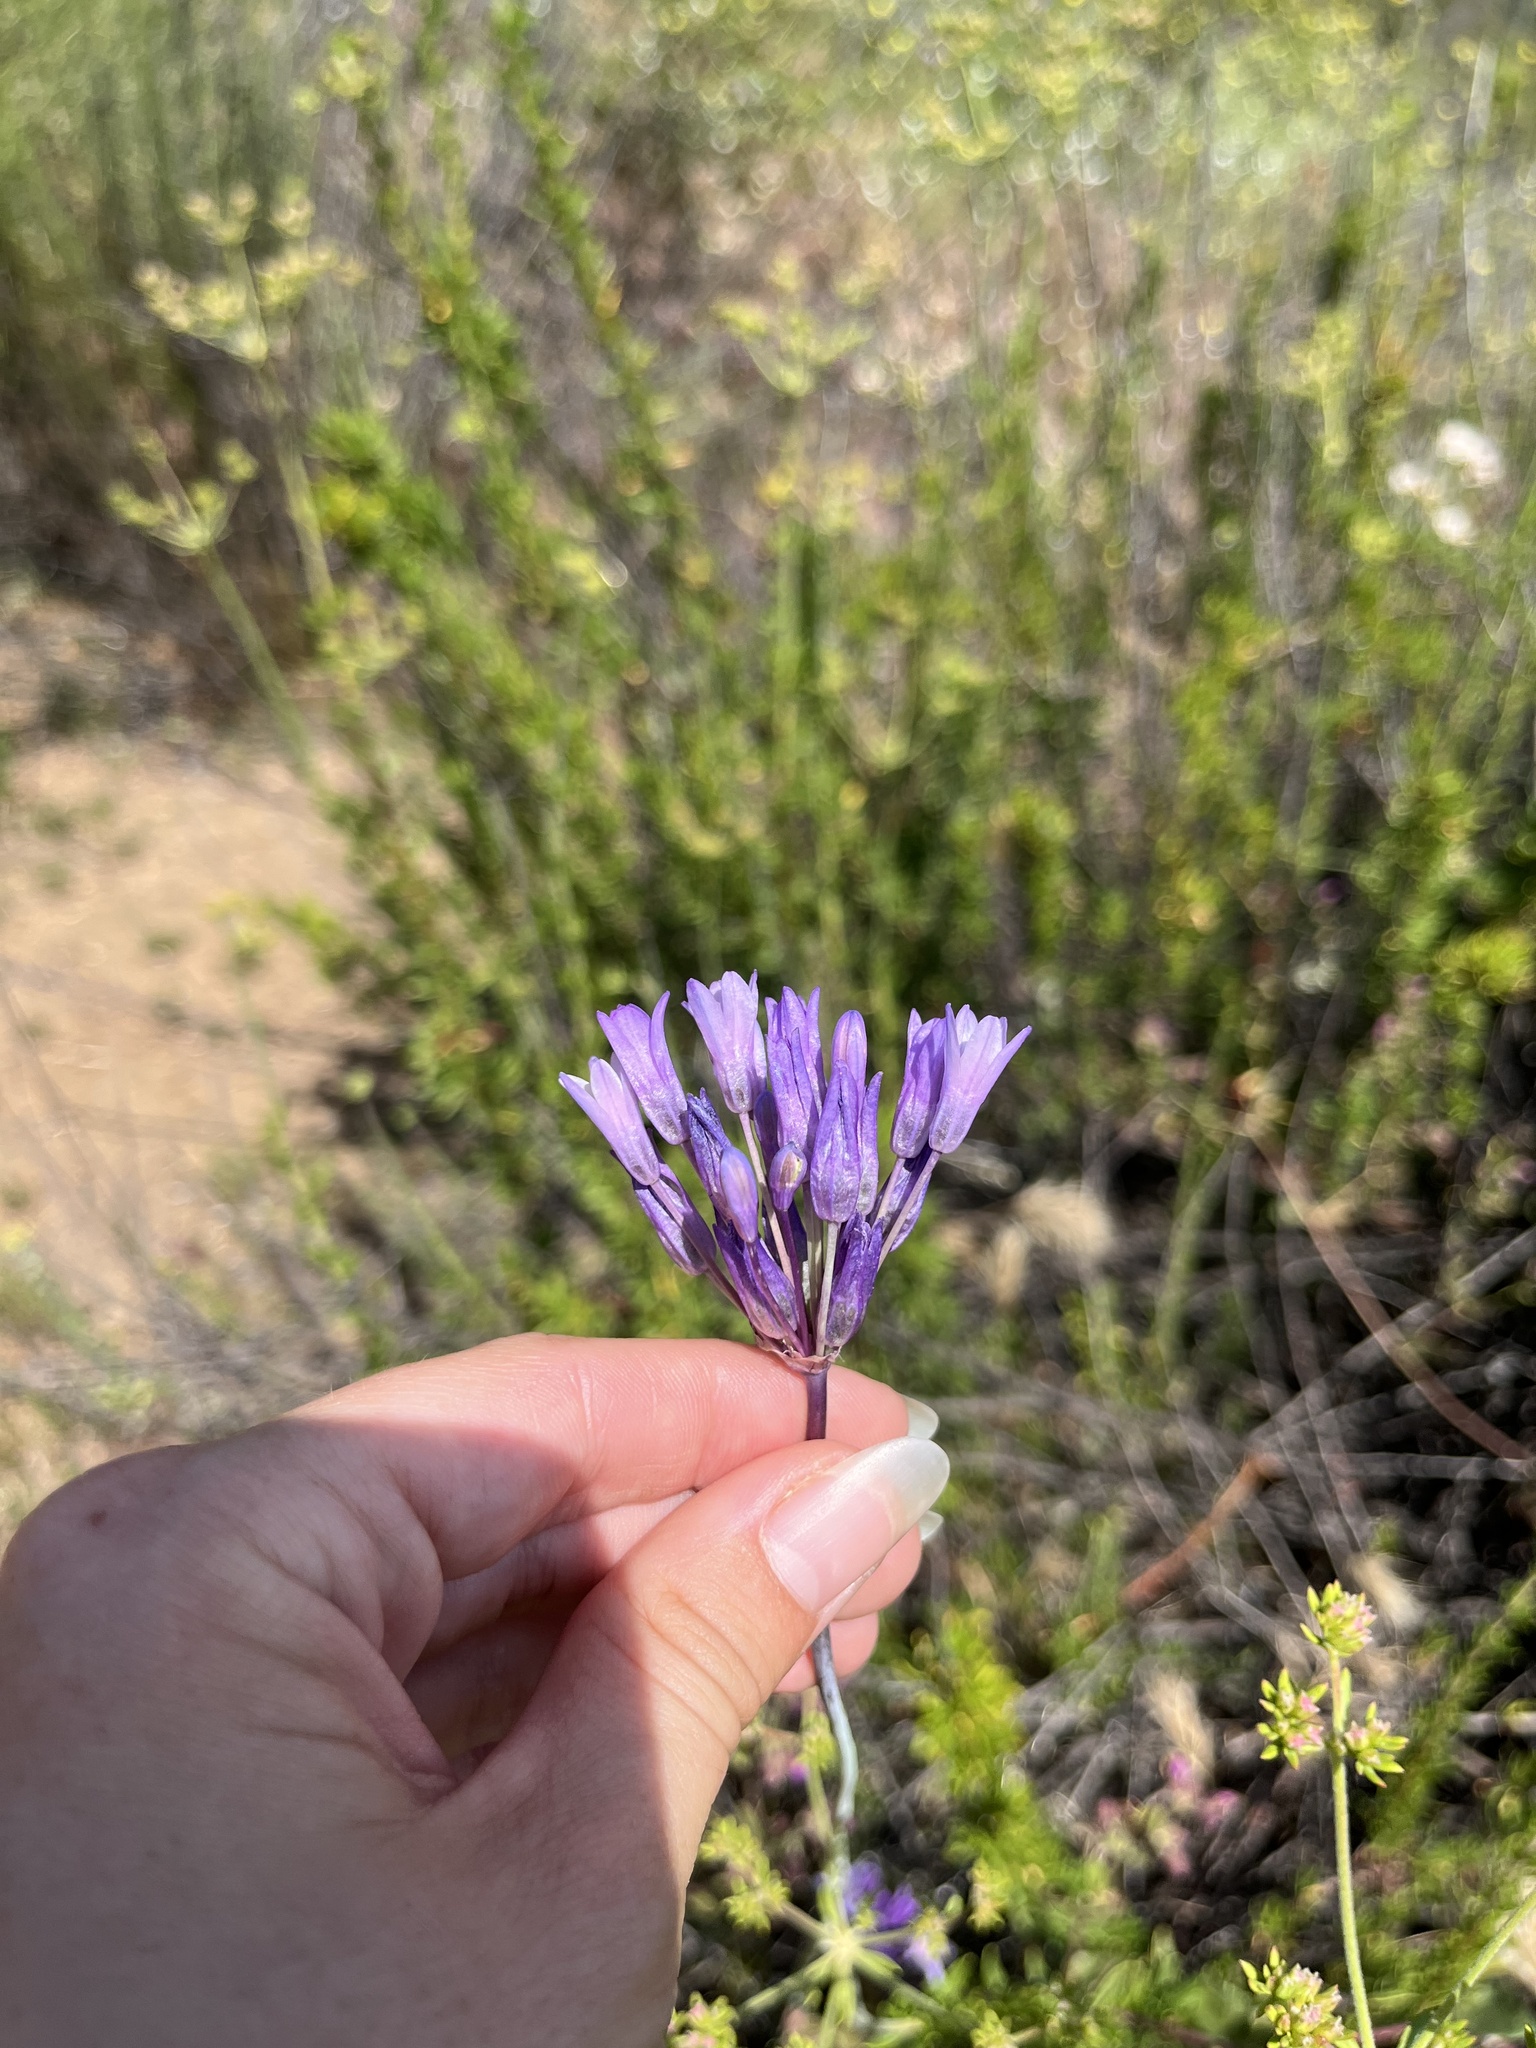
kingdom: Plantae
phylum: Tracheophyta
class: Liliopsida
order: Asparagales
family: Asparagaceae
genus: Dipterostemon
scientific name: Dipterostemon capitatus
